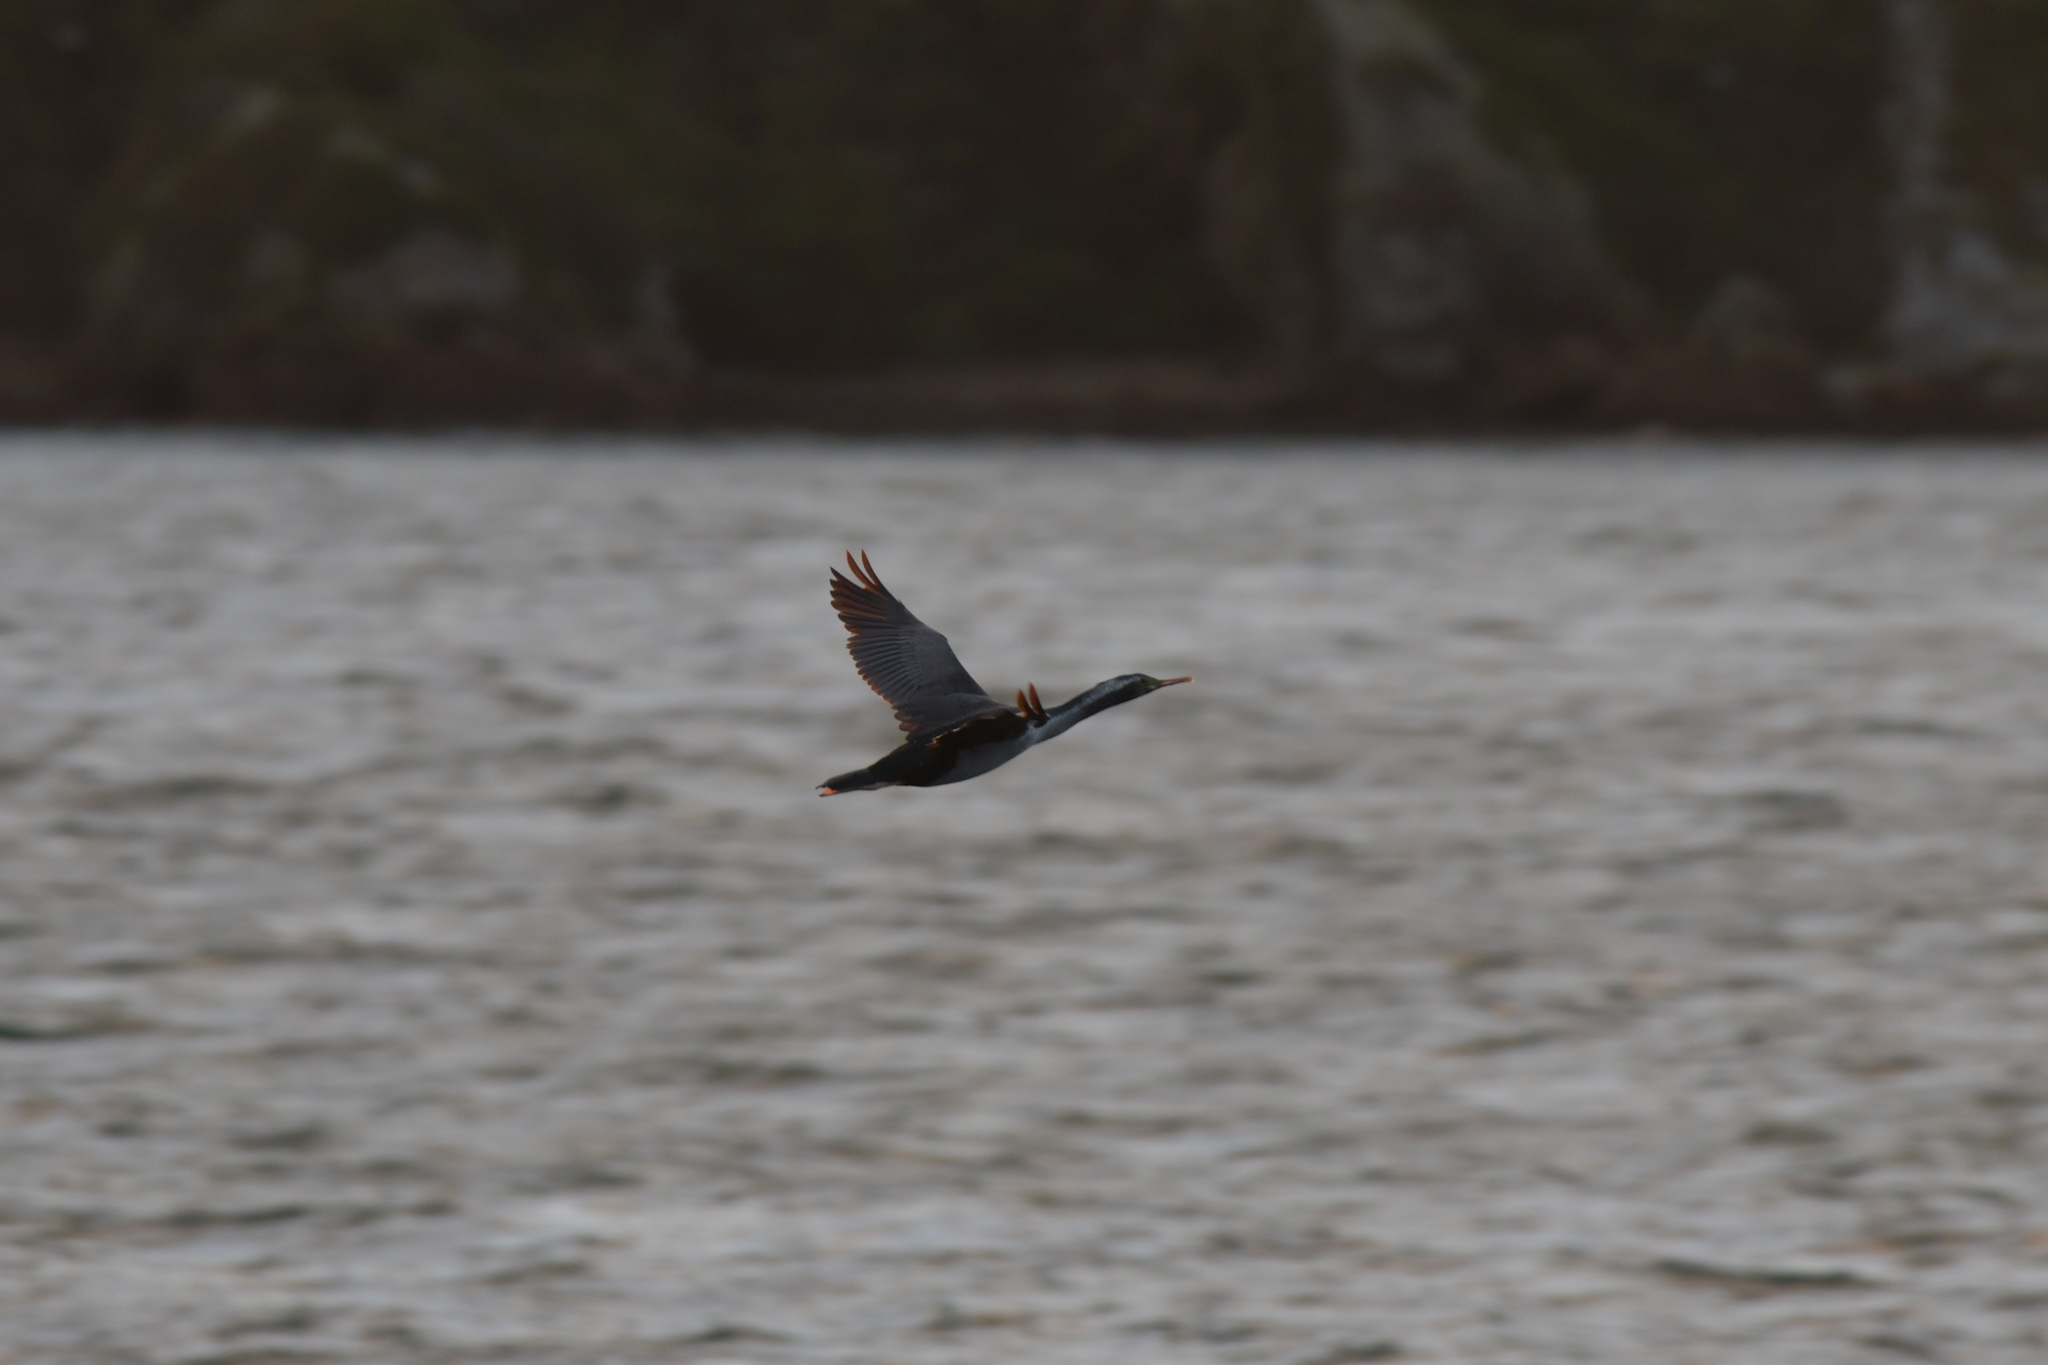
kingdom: Animalia
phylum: Chordata
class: Aves
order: Suliformes
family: Phalacrocoracidae
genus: Phalacrocorax
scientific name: Phalacrocorax punctatus
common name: Spotted shag
